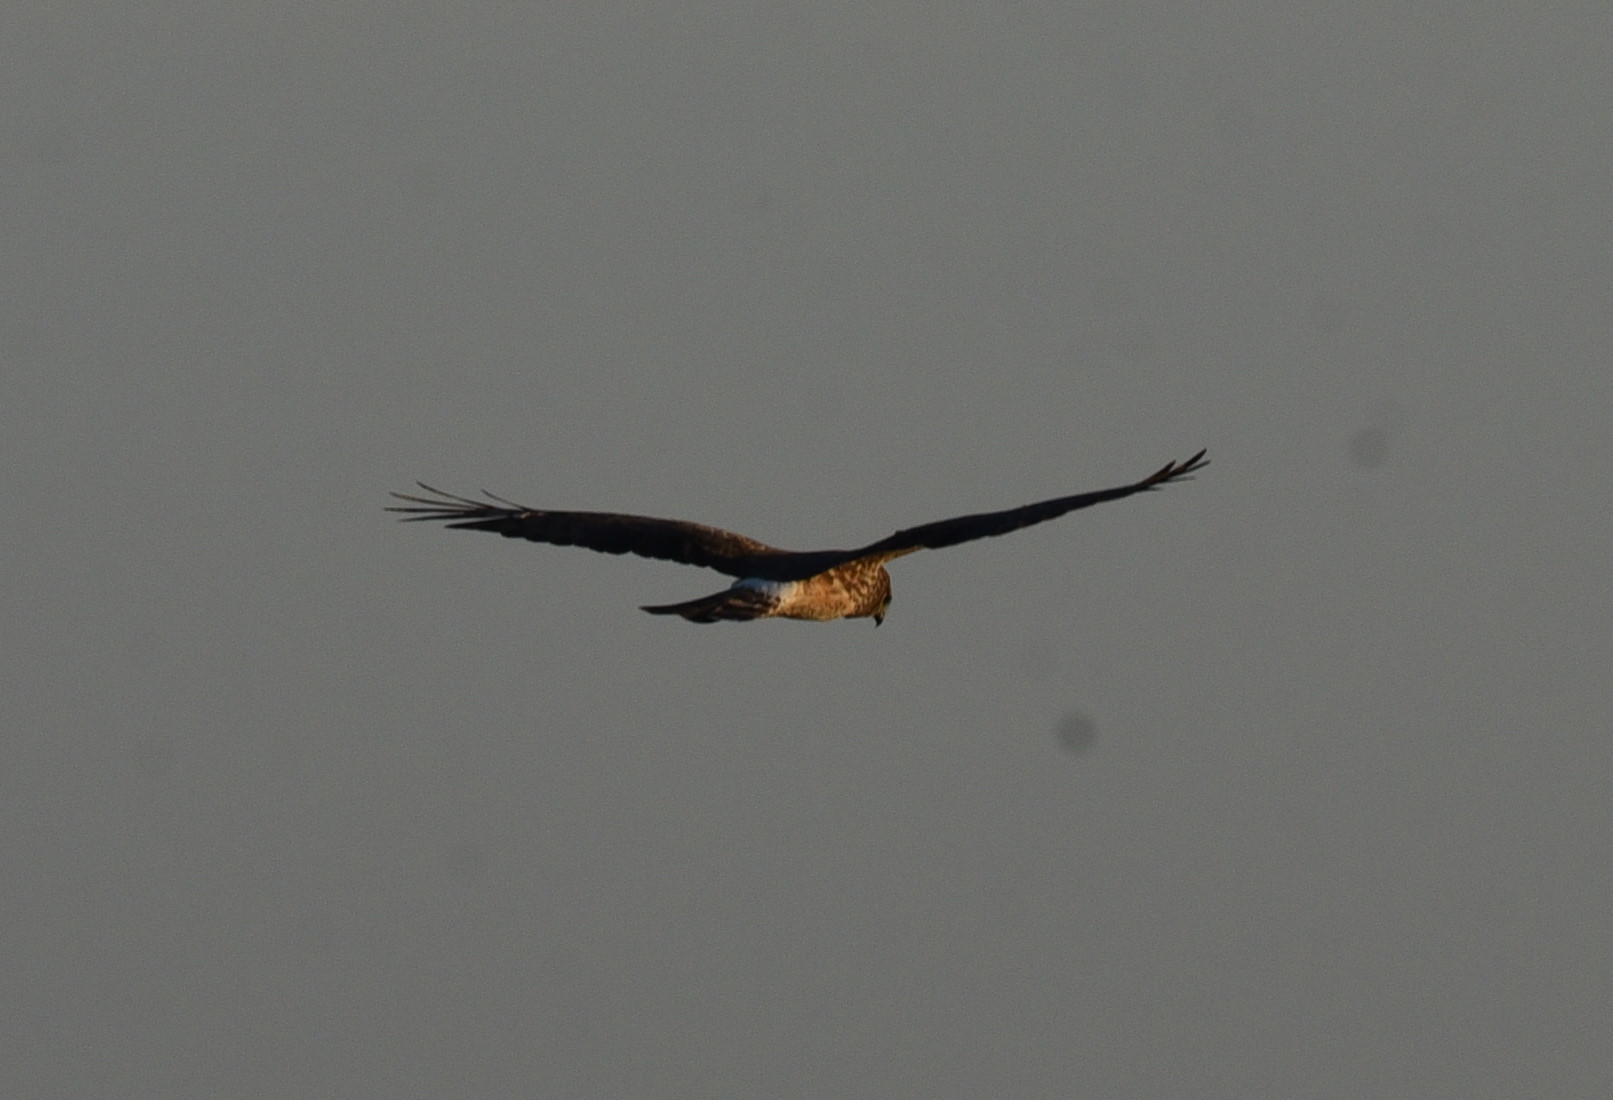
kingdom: Animalia
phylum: Chordata
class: Aves
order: Accipitriformes
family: Accipitridae
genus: Circus
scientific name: Circus cyaneus
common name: Hen harrier
